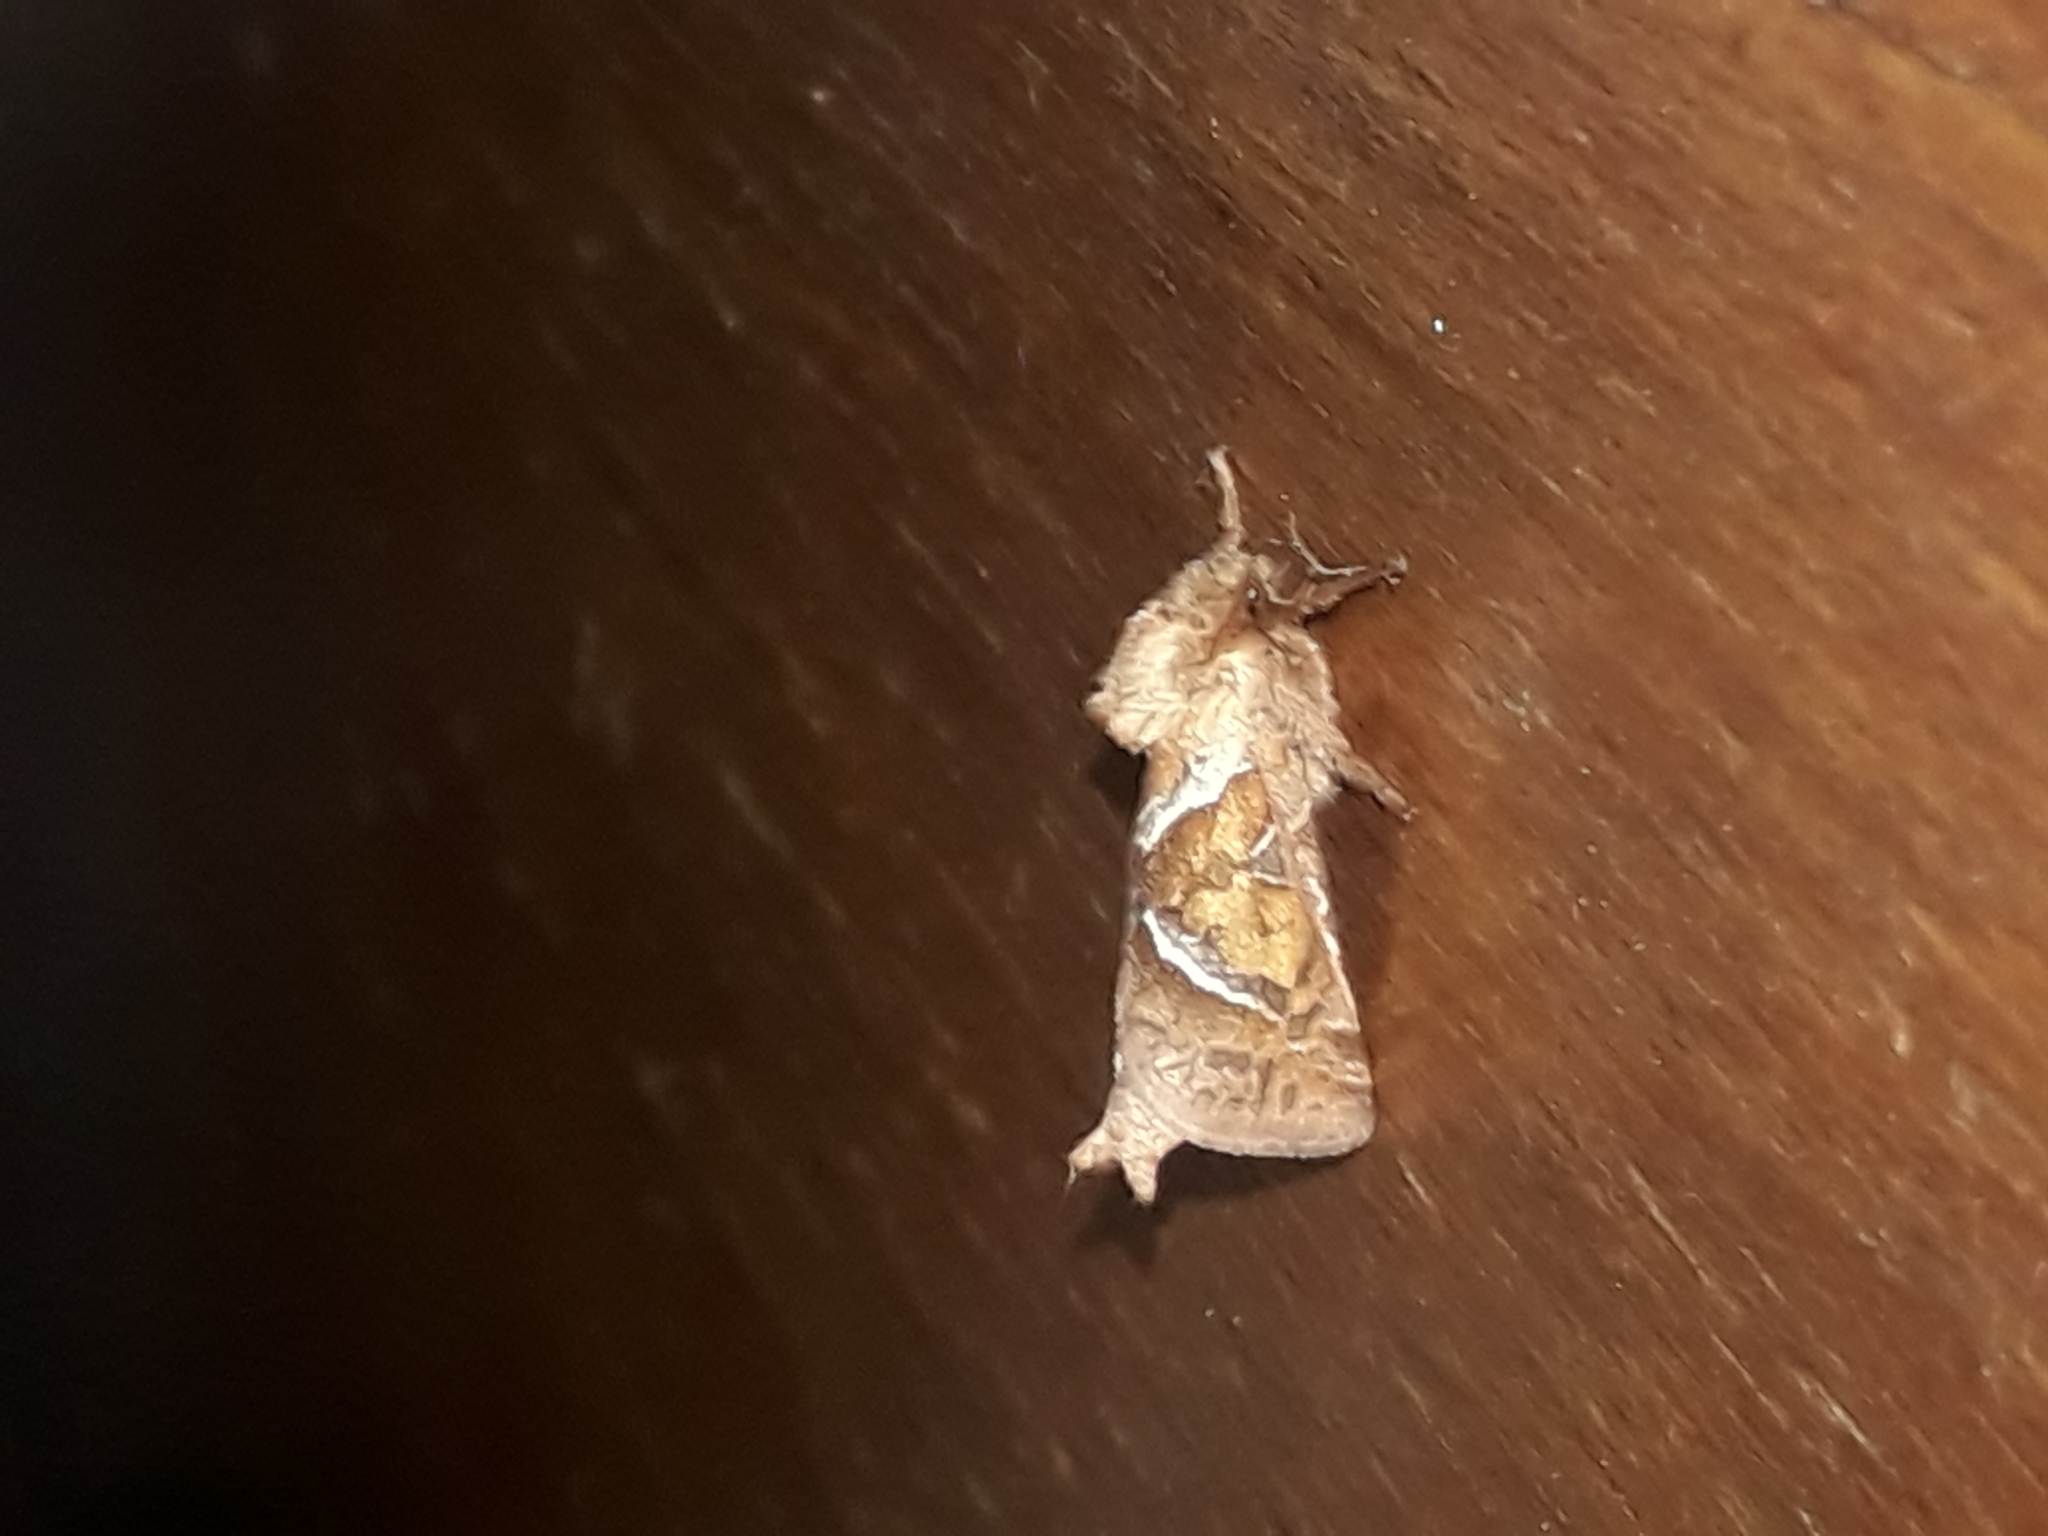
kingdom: Animalia
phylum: Arthropoda
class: Insecta
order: Lepidoptera
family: Hepialidae
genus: Triodia
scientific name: Triodia sylvina
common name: Orange swift
